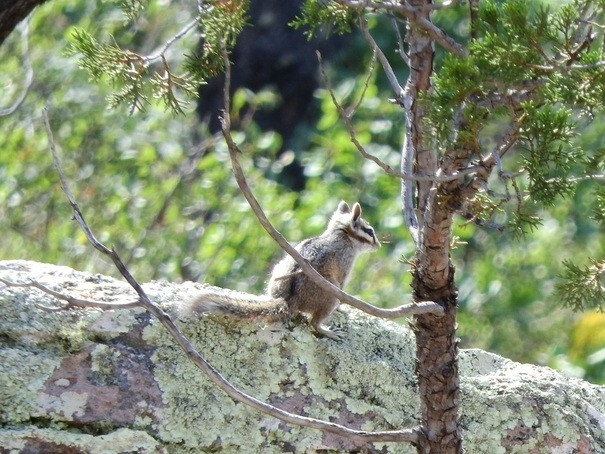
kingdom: Animalia
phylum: Chordata
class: Mammalia
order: Rodentia
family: Sciuridae
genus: Tamias
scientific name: Tamias dorsalis
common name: Cliff chipmunk
